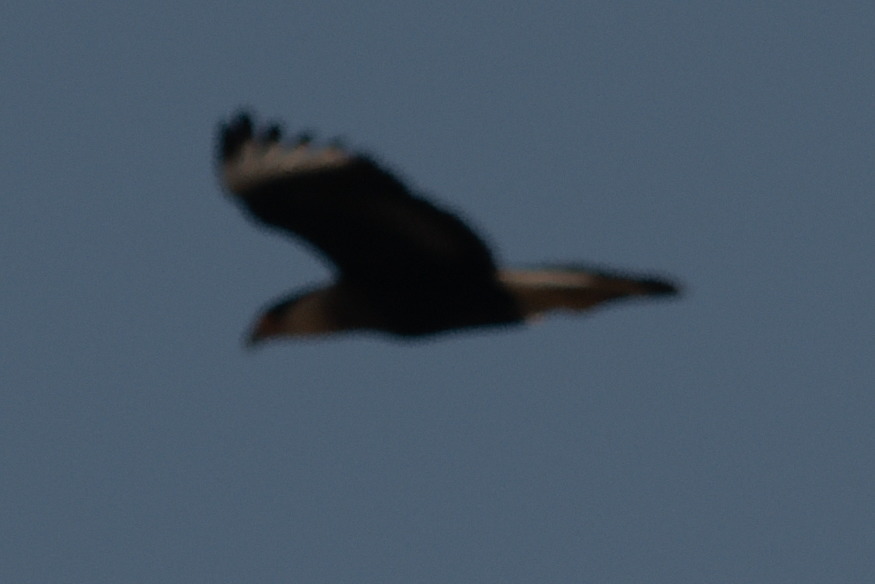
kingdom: Animalia
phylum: Chordata
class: Aves
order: Falconiformes
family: Falconidae
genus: Caracara
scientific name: Caracara plancus
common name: Southern caracara
